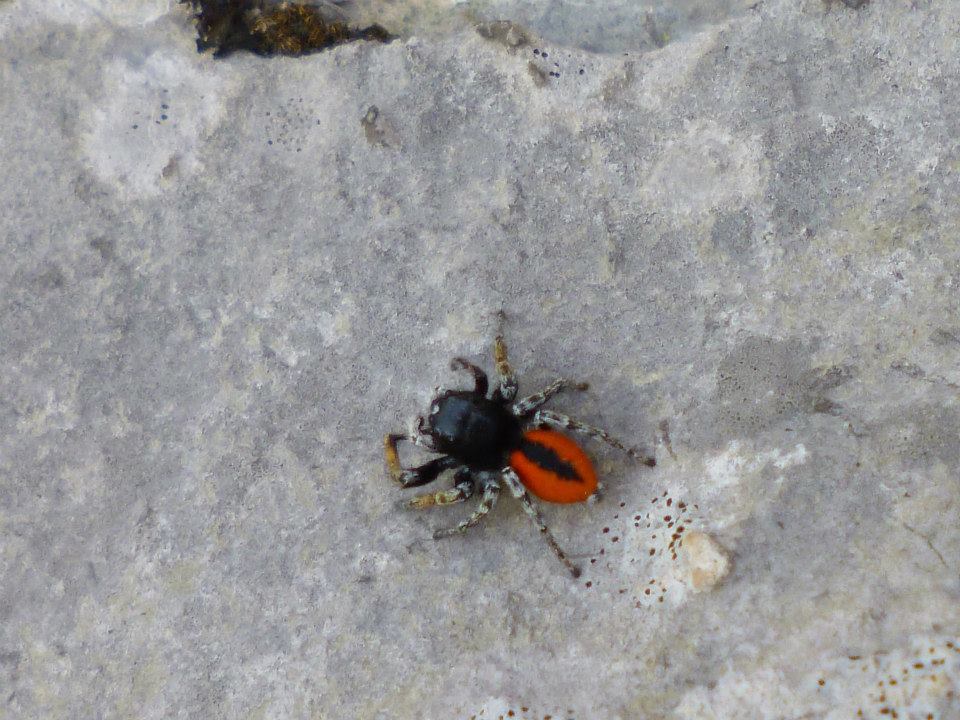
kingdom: Animalia
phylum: Arthropoda
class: Arachnida
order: Araneae
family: Salticidae
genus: Philaeus
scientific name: Philaeus chrysops
